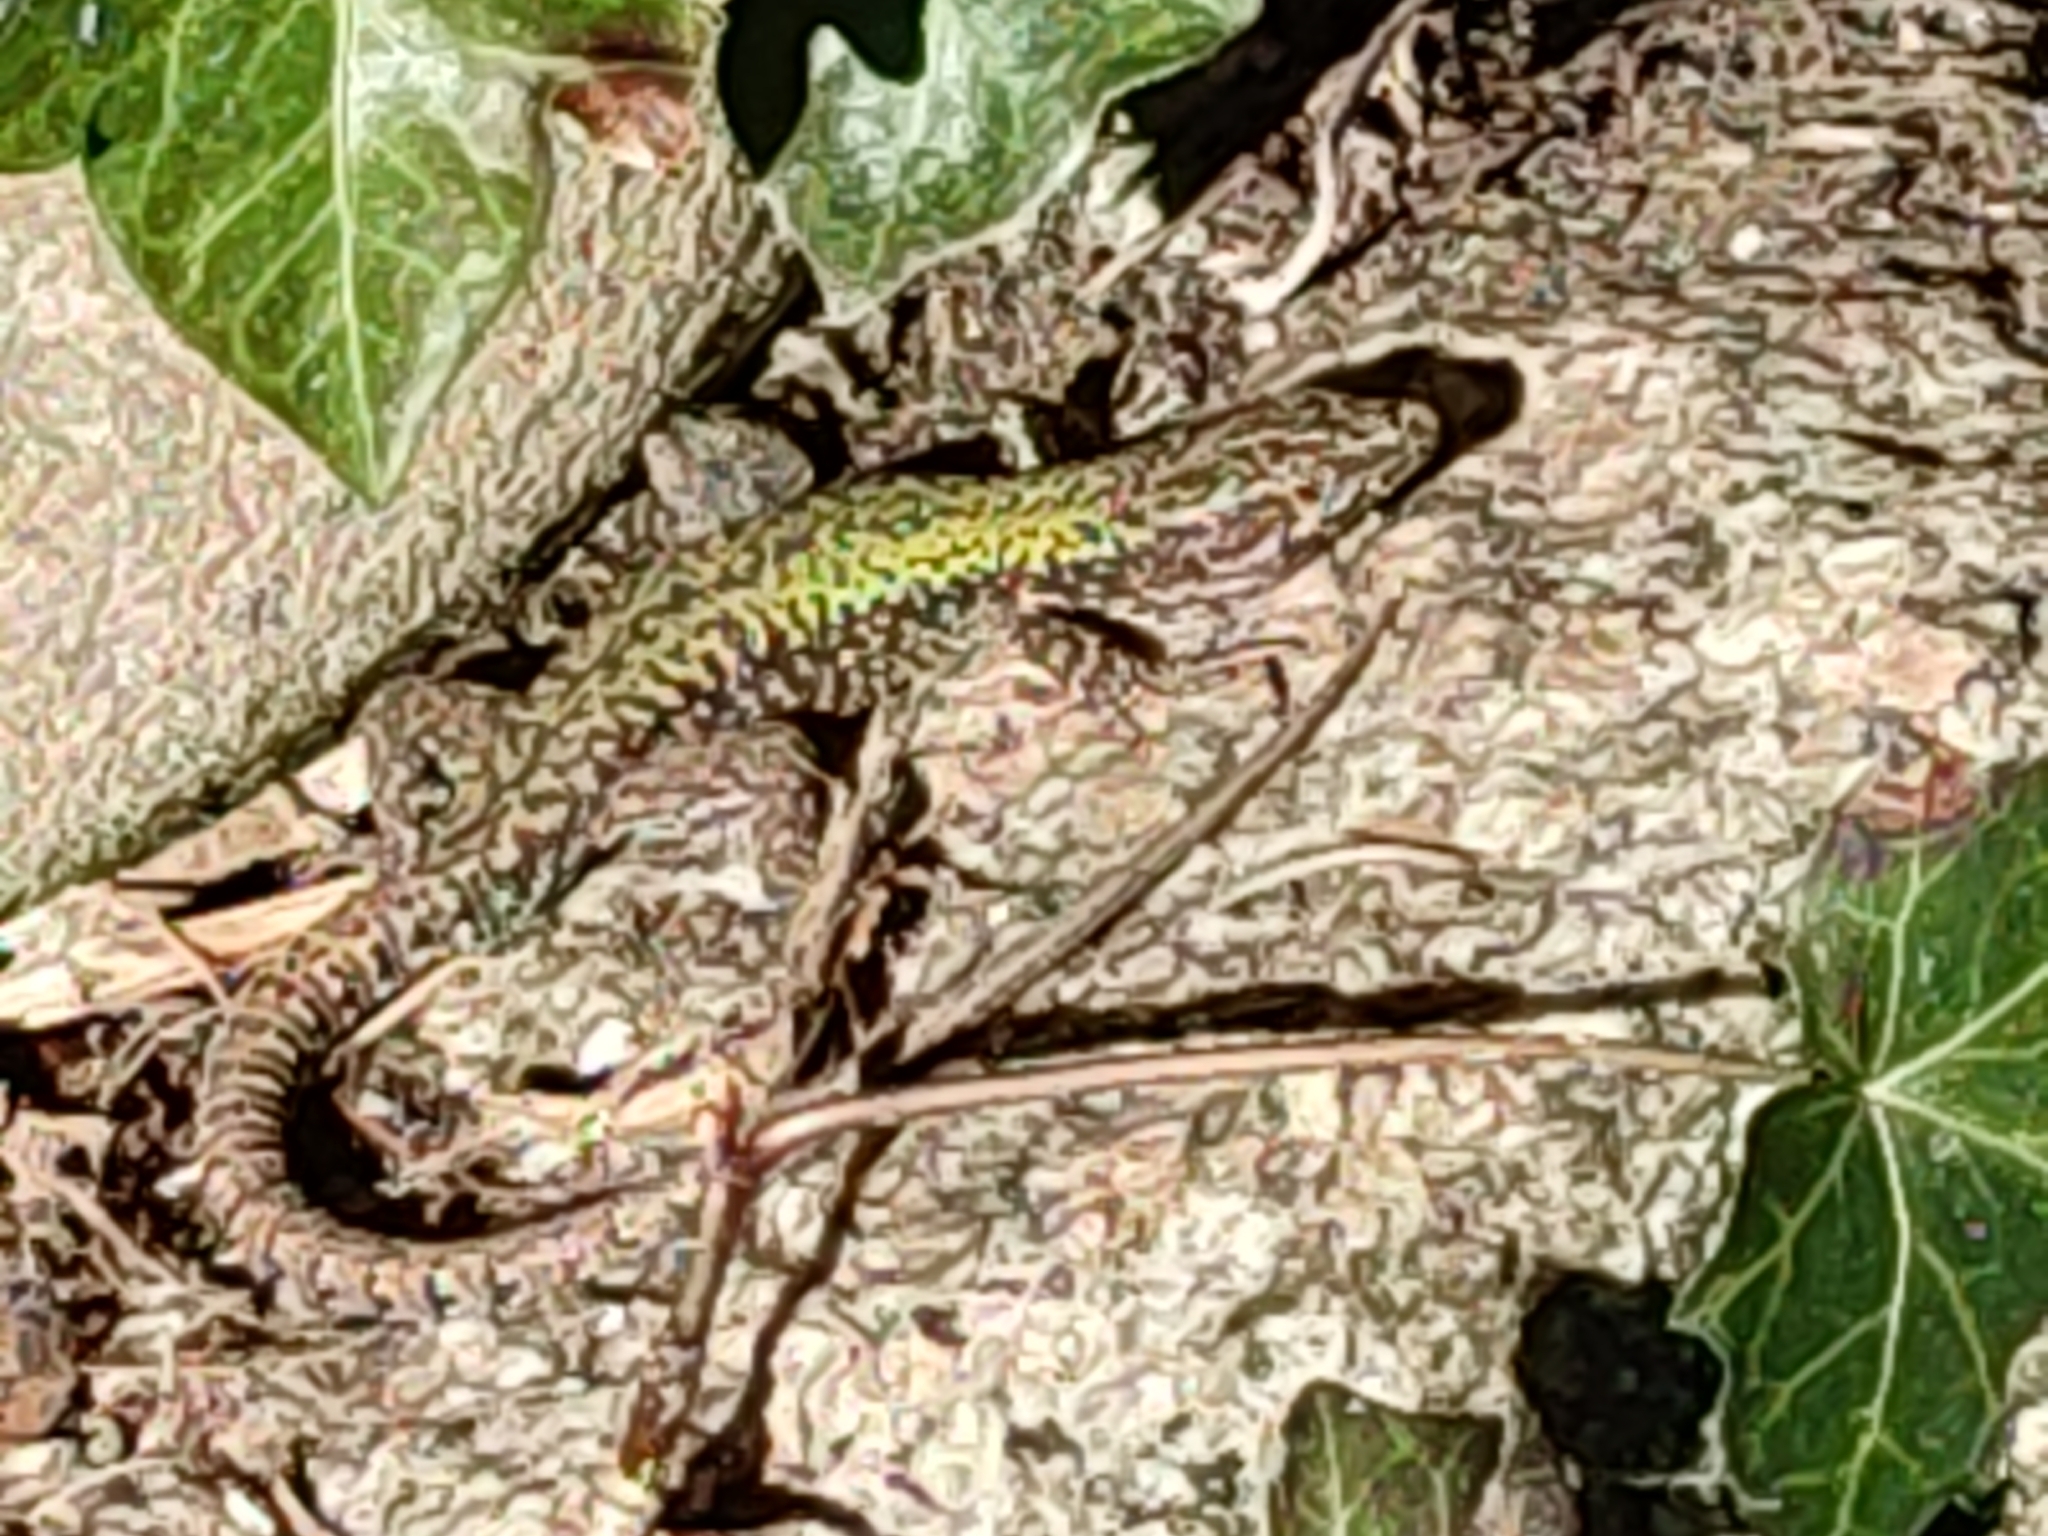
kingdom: Animalia
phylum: Chordata
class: Squamata
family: Lacertidae
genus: Podarcis
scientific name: Podarcis muralis
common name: Common wall lizard
